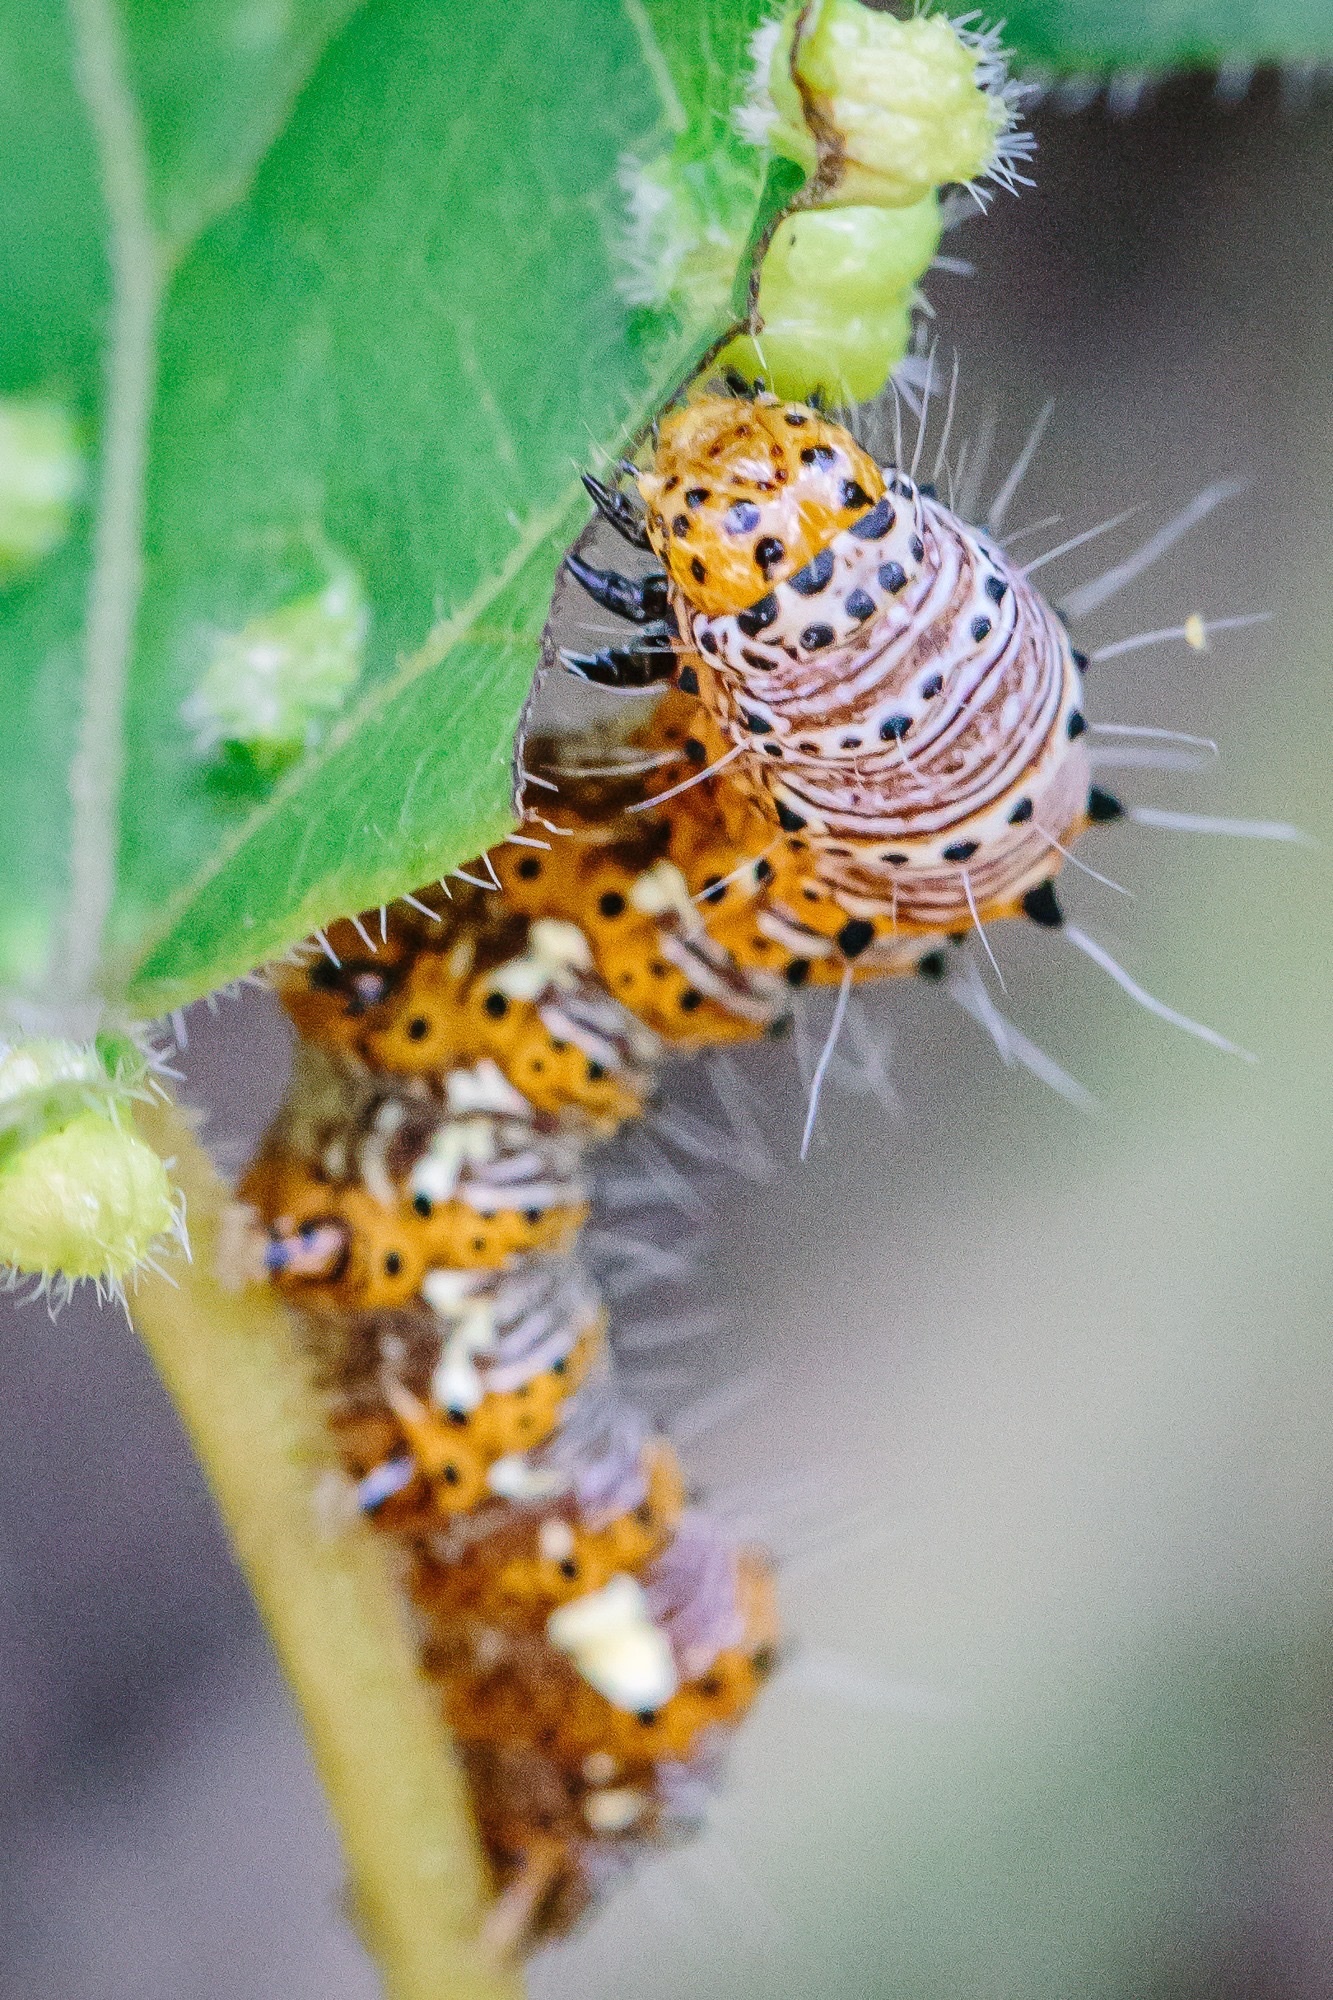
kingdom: Animalia
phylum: Arthropoda
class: Insecta
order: Lepidoptera
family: Noctuidae
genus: Alypia
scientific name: Alypia octomaculata
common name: Eight-spotted forester
